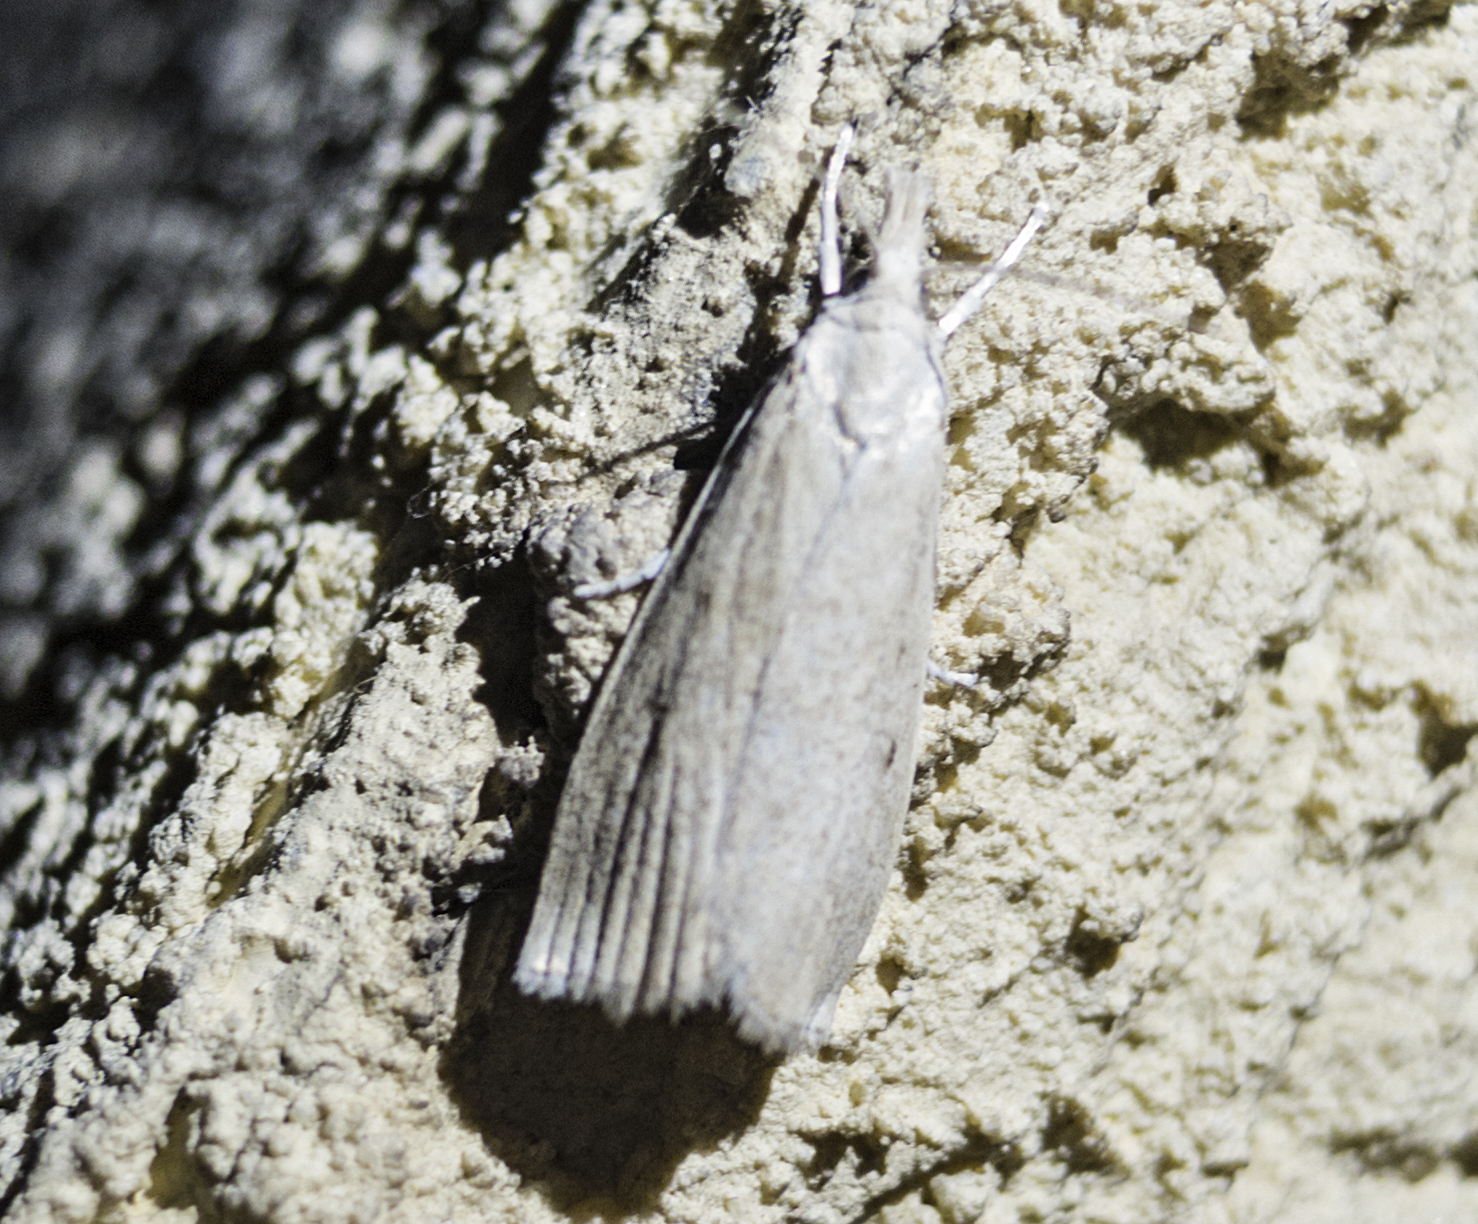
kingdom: Animalia
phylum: Arthropoda
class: Insecta
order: Lepidoptera
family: Crambidae
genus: Calamotropha
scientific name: Calamotropha paludella
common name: Bulrush veneer
